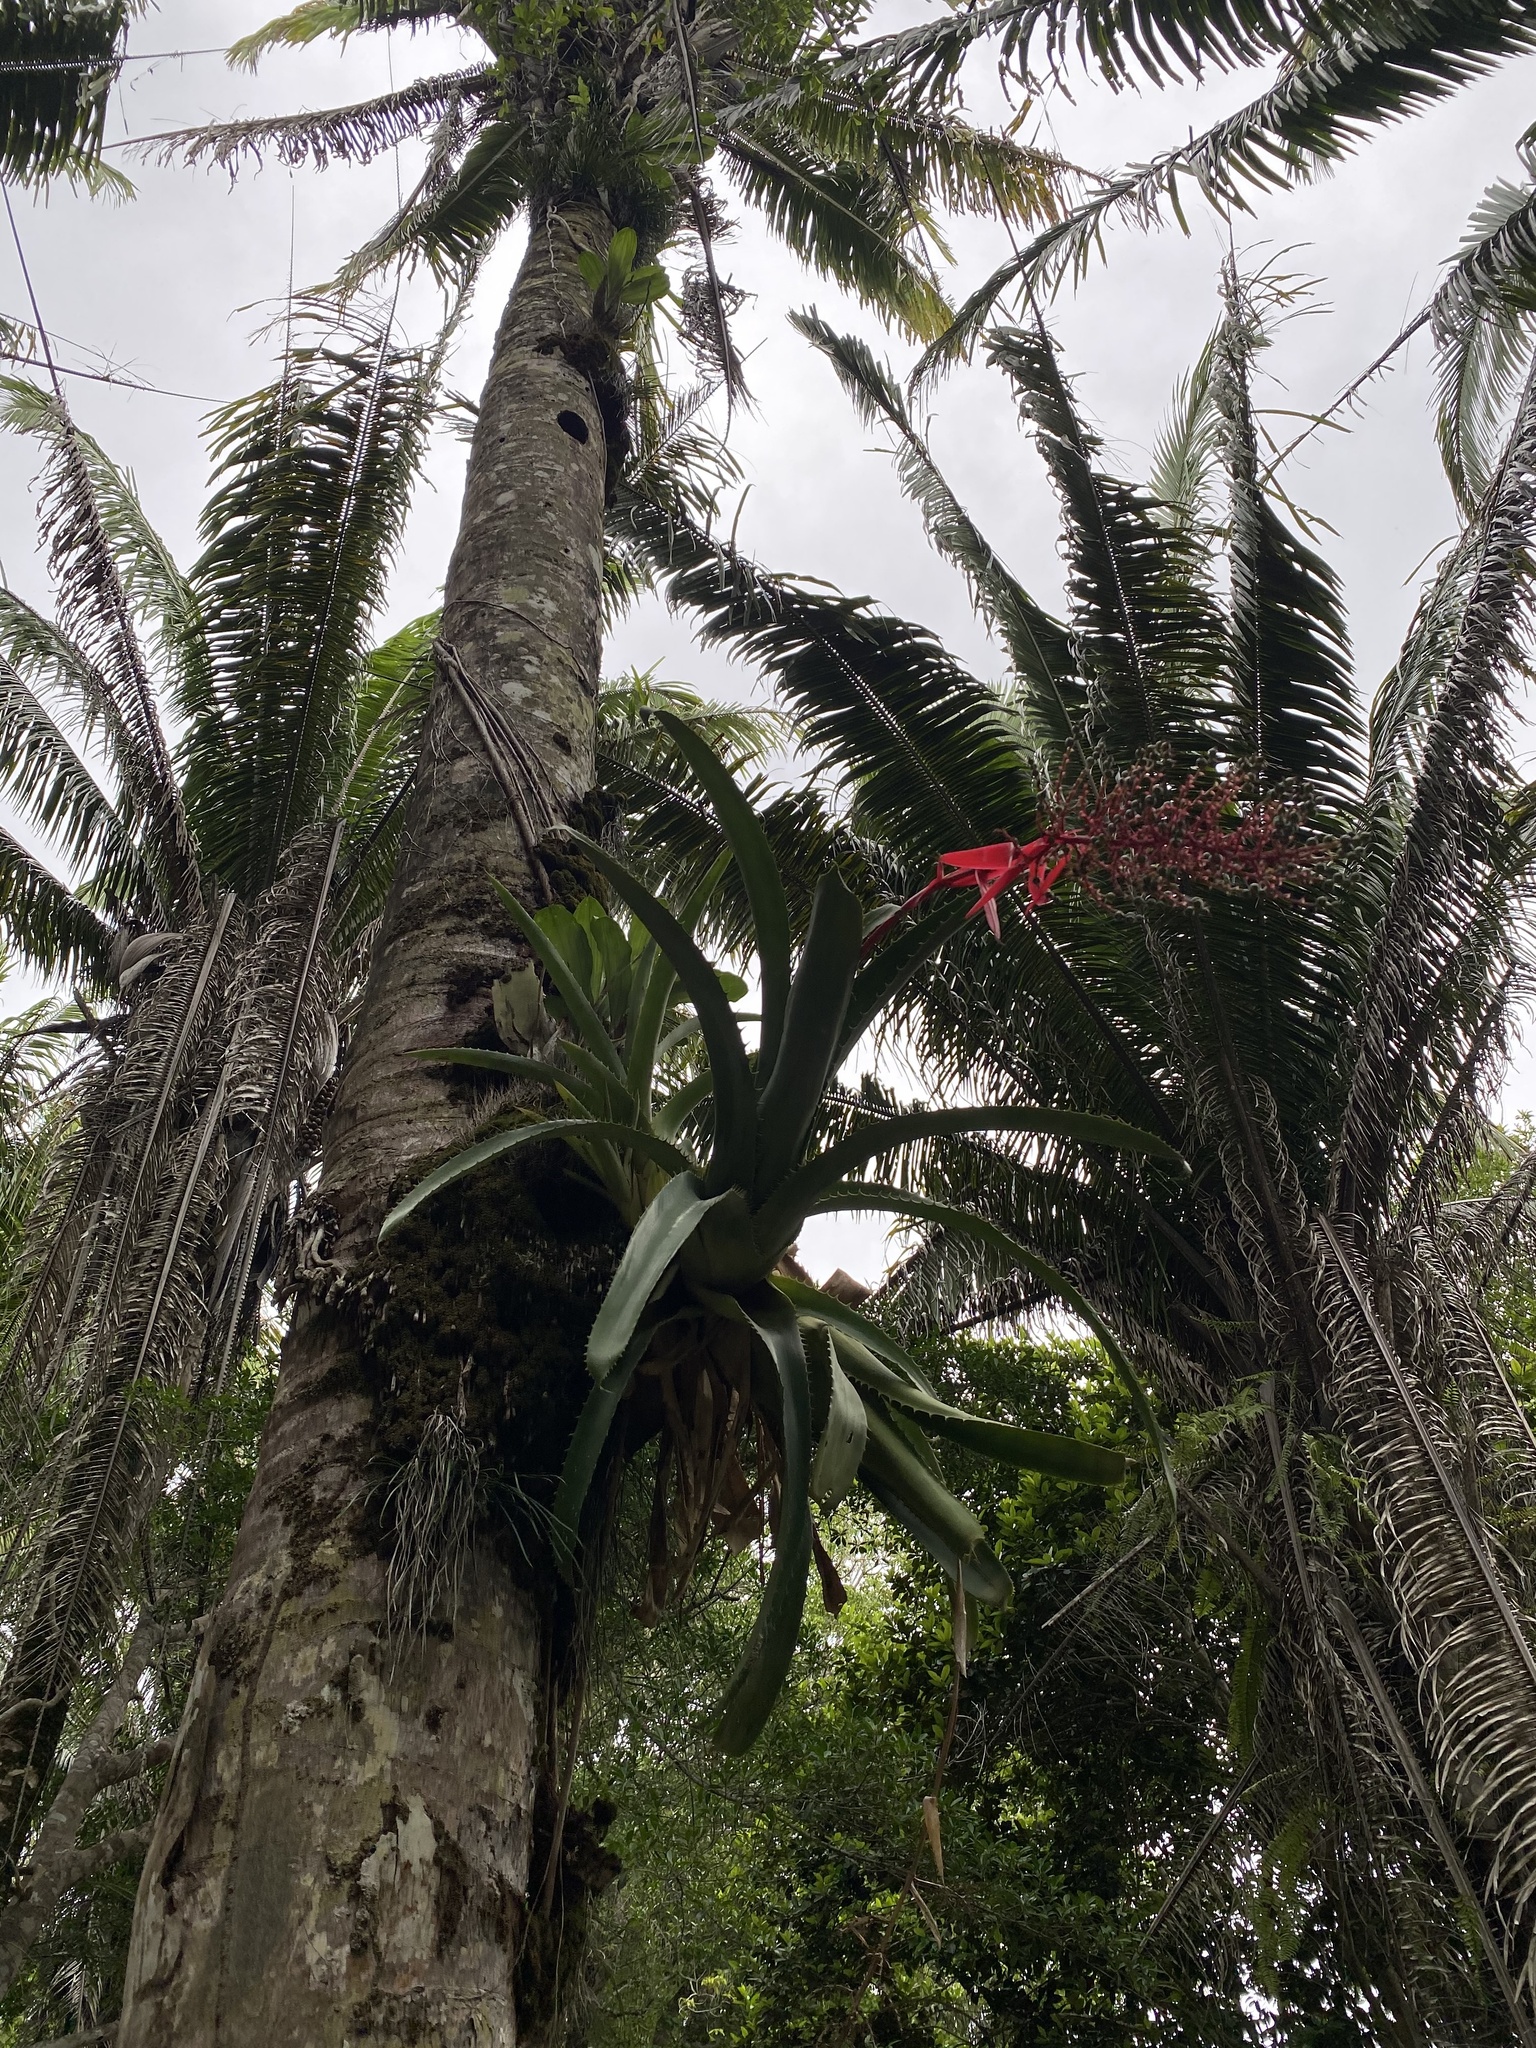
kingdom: Plantae
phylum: Tracheophyta
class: Liliopsida
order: Poales
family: Bromeliaceae
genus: Aechmea
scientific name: Aechmea bracteata
